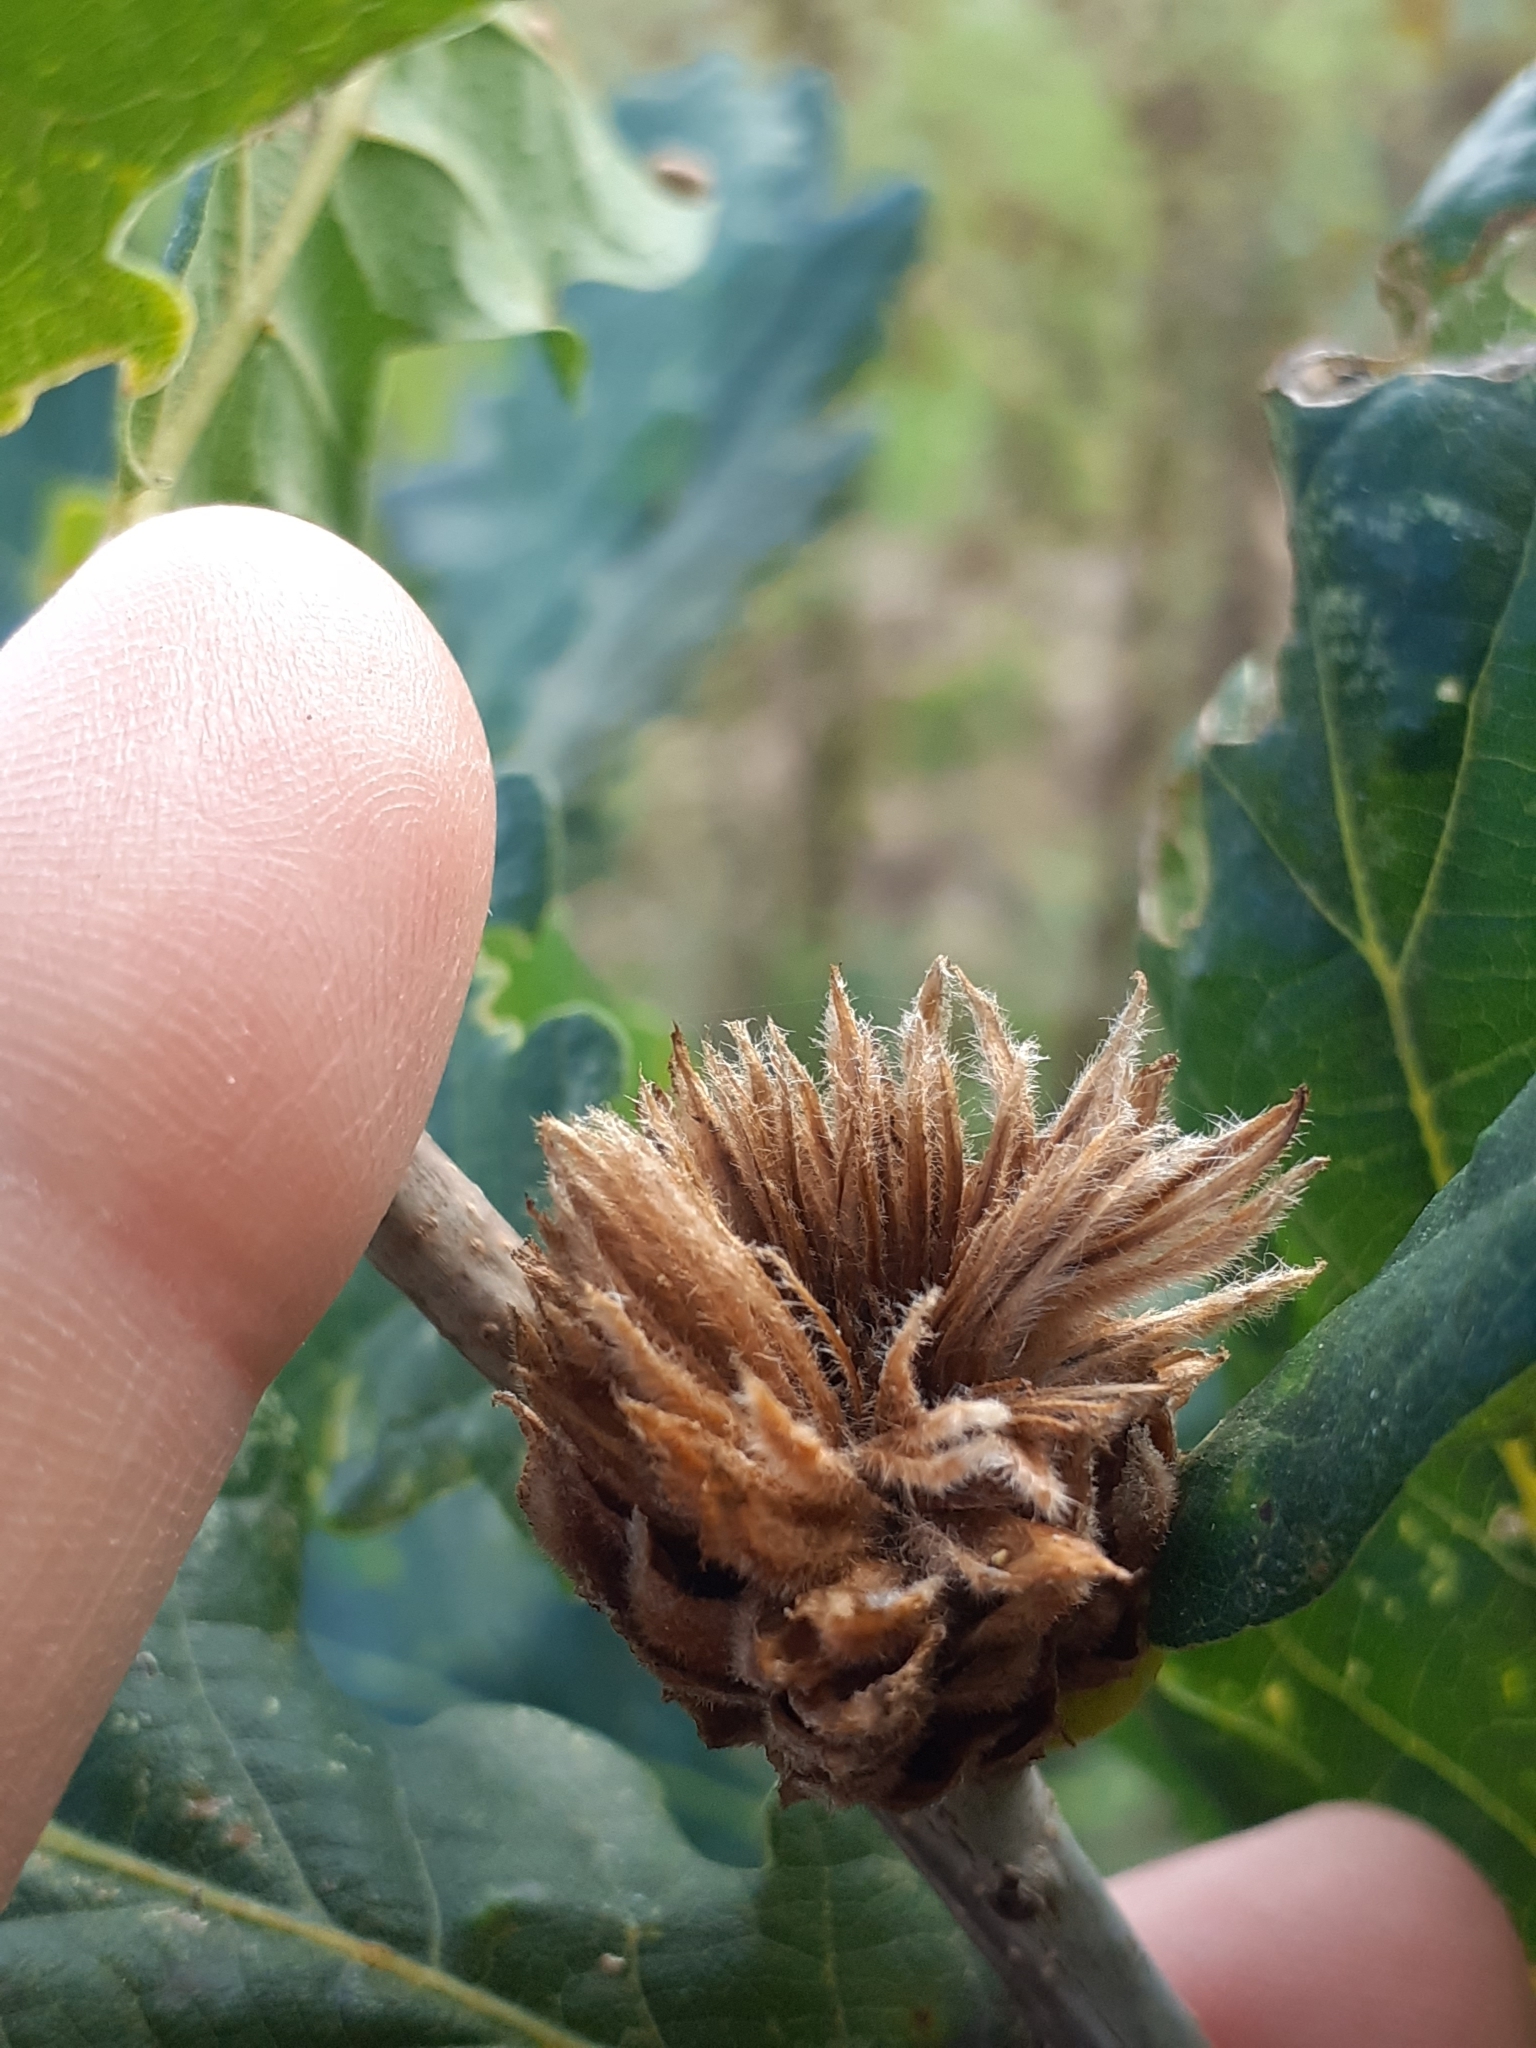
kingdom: Animalia
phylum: Arthropoda
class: Insecta
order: Hymenoptera
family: Cynipidae
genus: Andricus
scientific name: Andricus foecundatrix
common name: Artichoke gall
